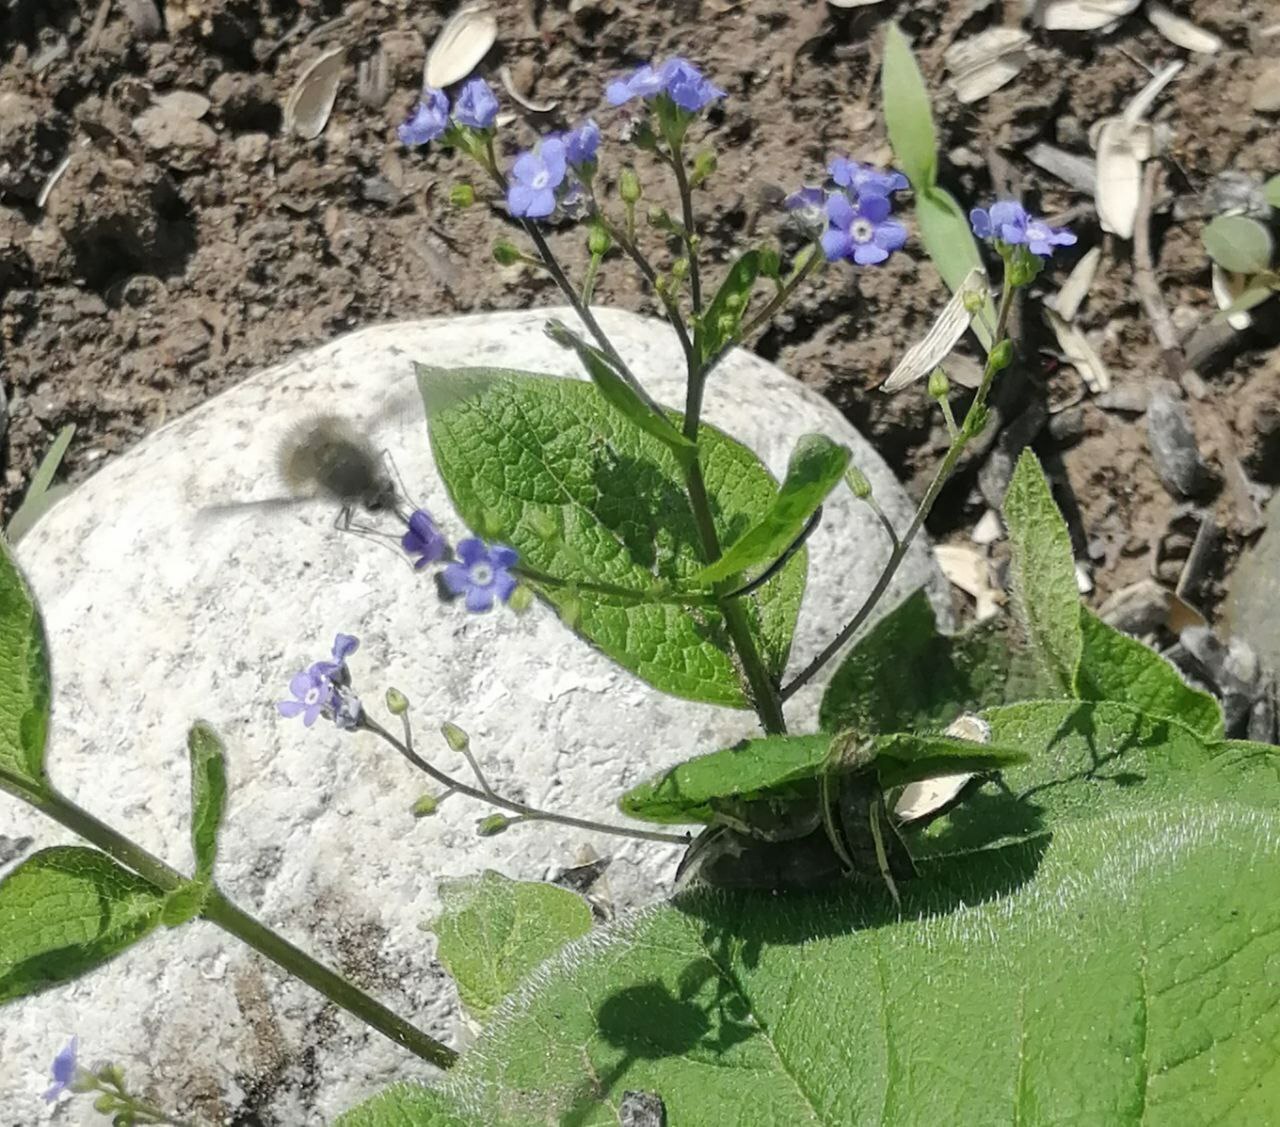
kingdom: Animalia
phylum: Arthropoda
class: Insecta
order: Diptera
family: Bombyliidae
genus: Bombylius
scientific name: Bombylius major
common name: Bee fly
